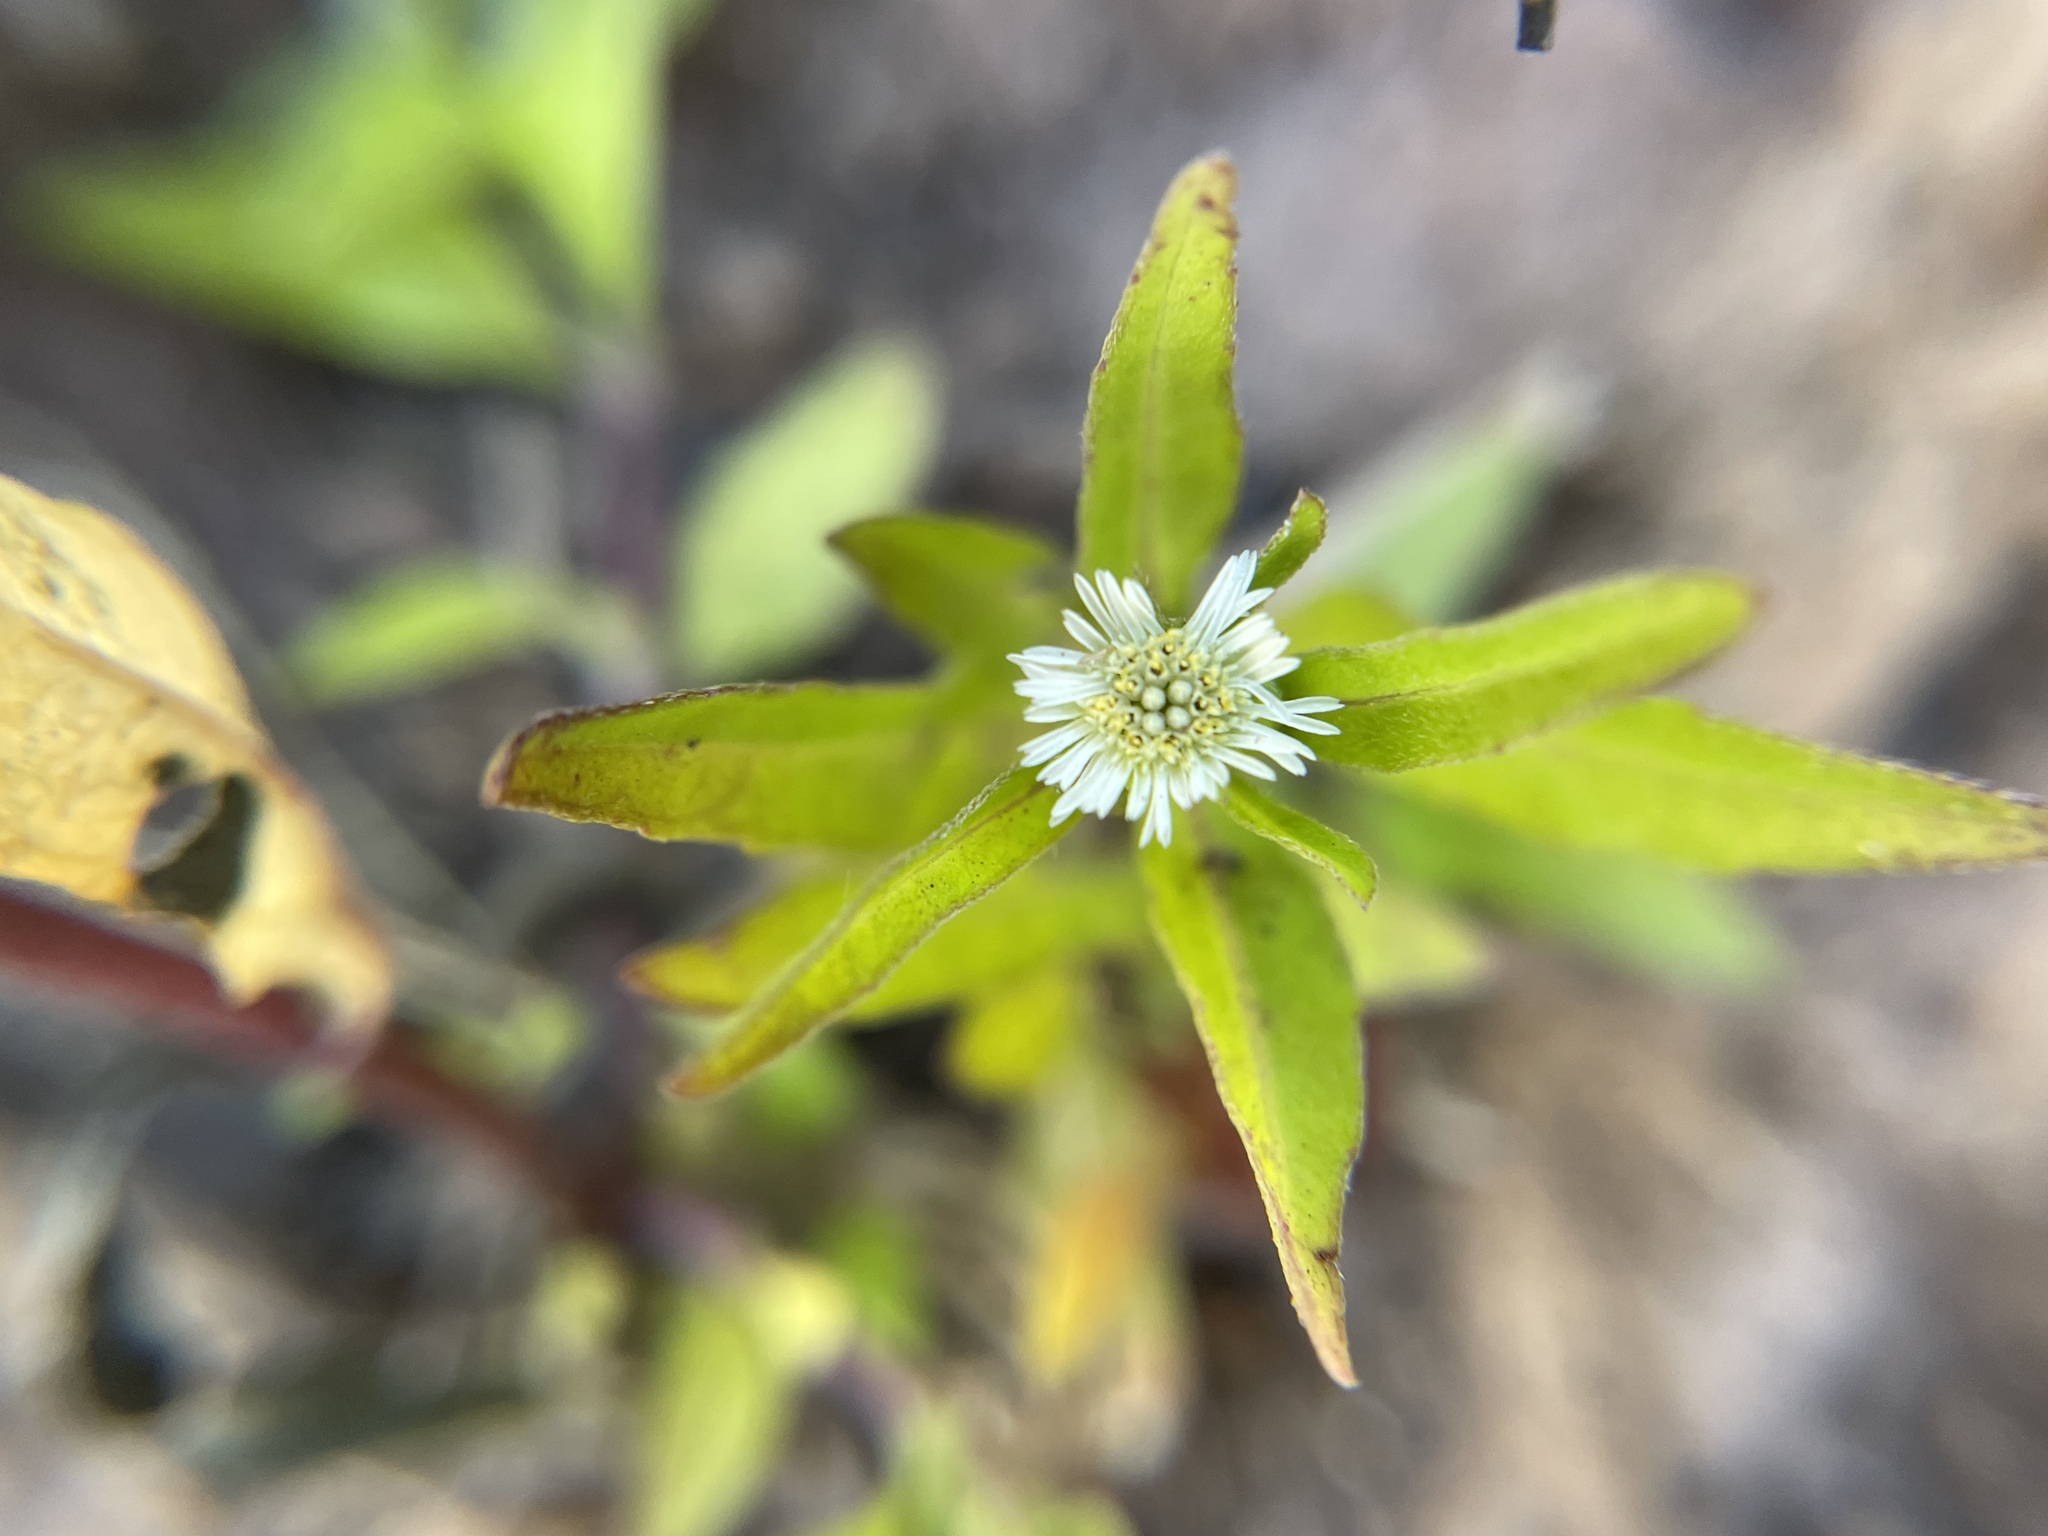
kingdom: Plantae
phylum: Tracheophyta
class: Magnoliopsida
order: Asterales
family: Asteraceae
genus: Eclipta
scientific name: Eclipta prostrata
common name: False daisy
